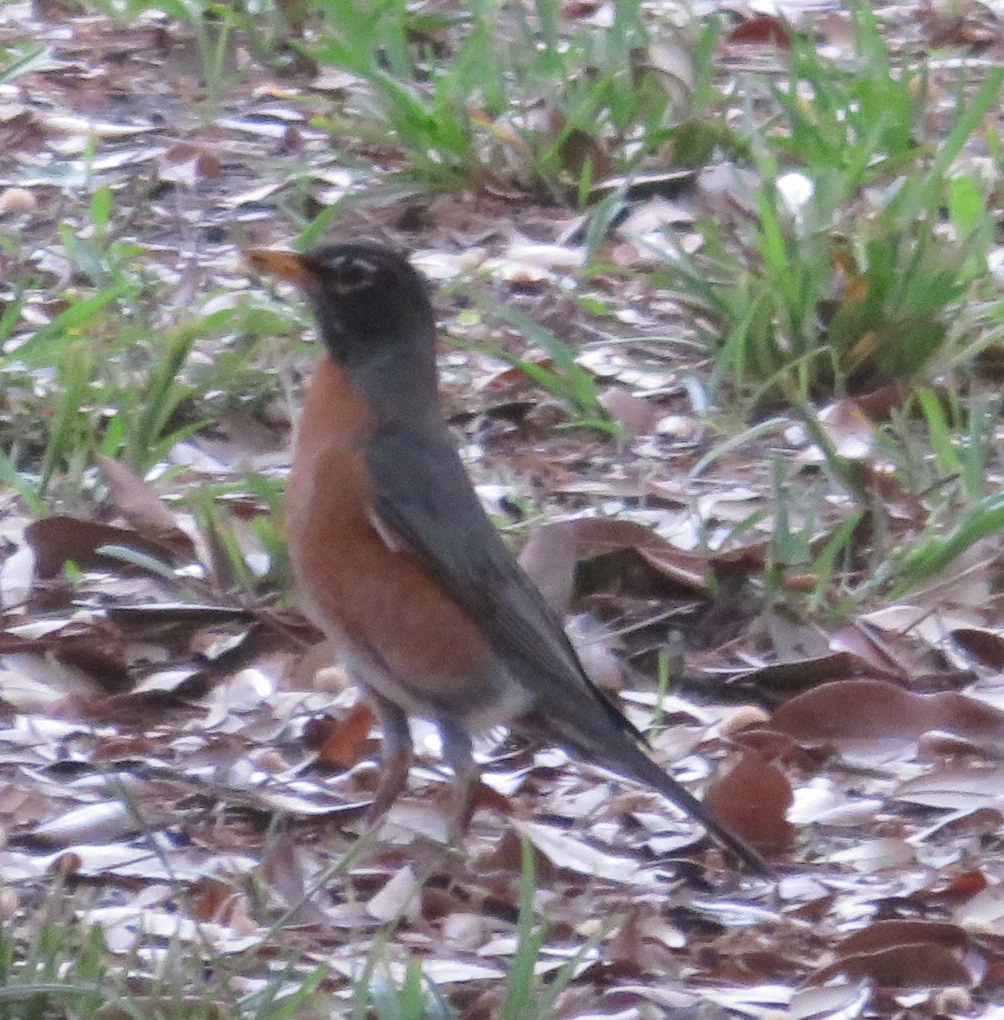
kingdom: Animalia
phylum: Chordata
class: Aves
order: Passeriformes
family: Turdidae
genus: Turdus
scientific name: Turdus migratorius
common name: American robin
